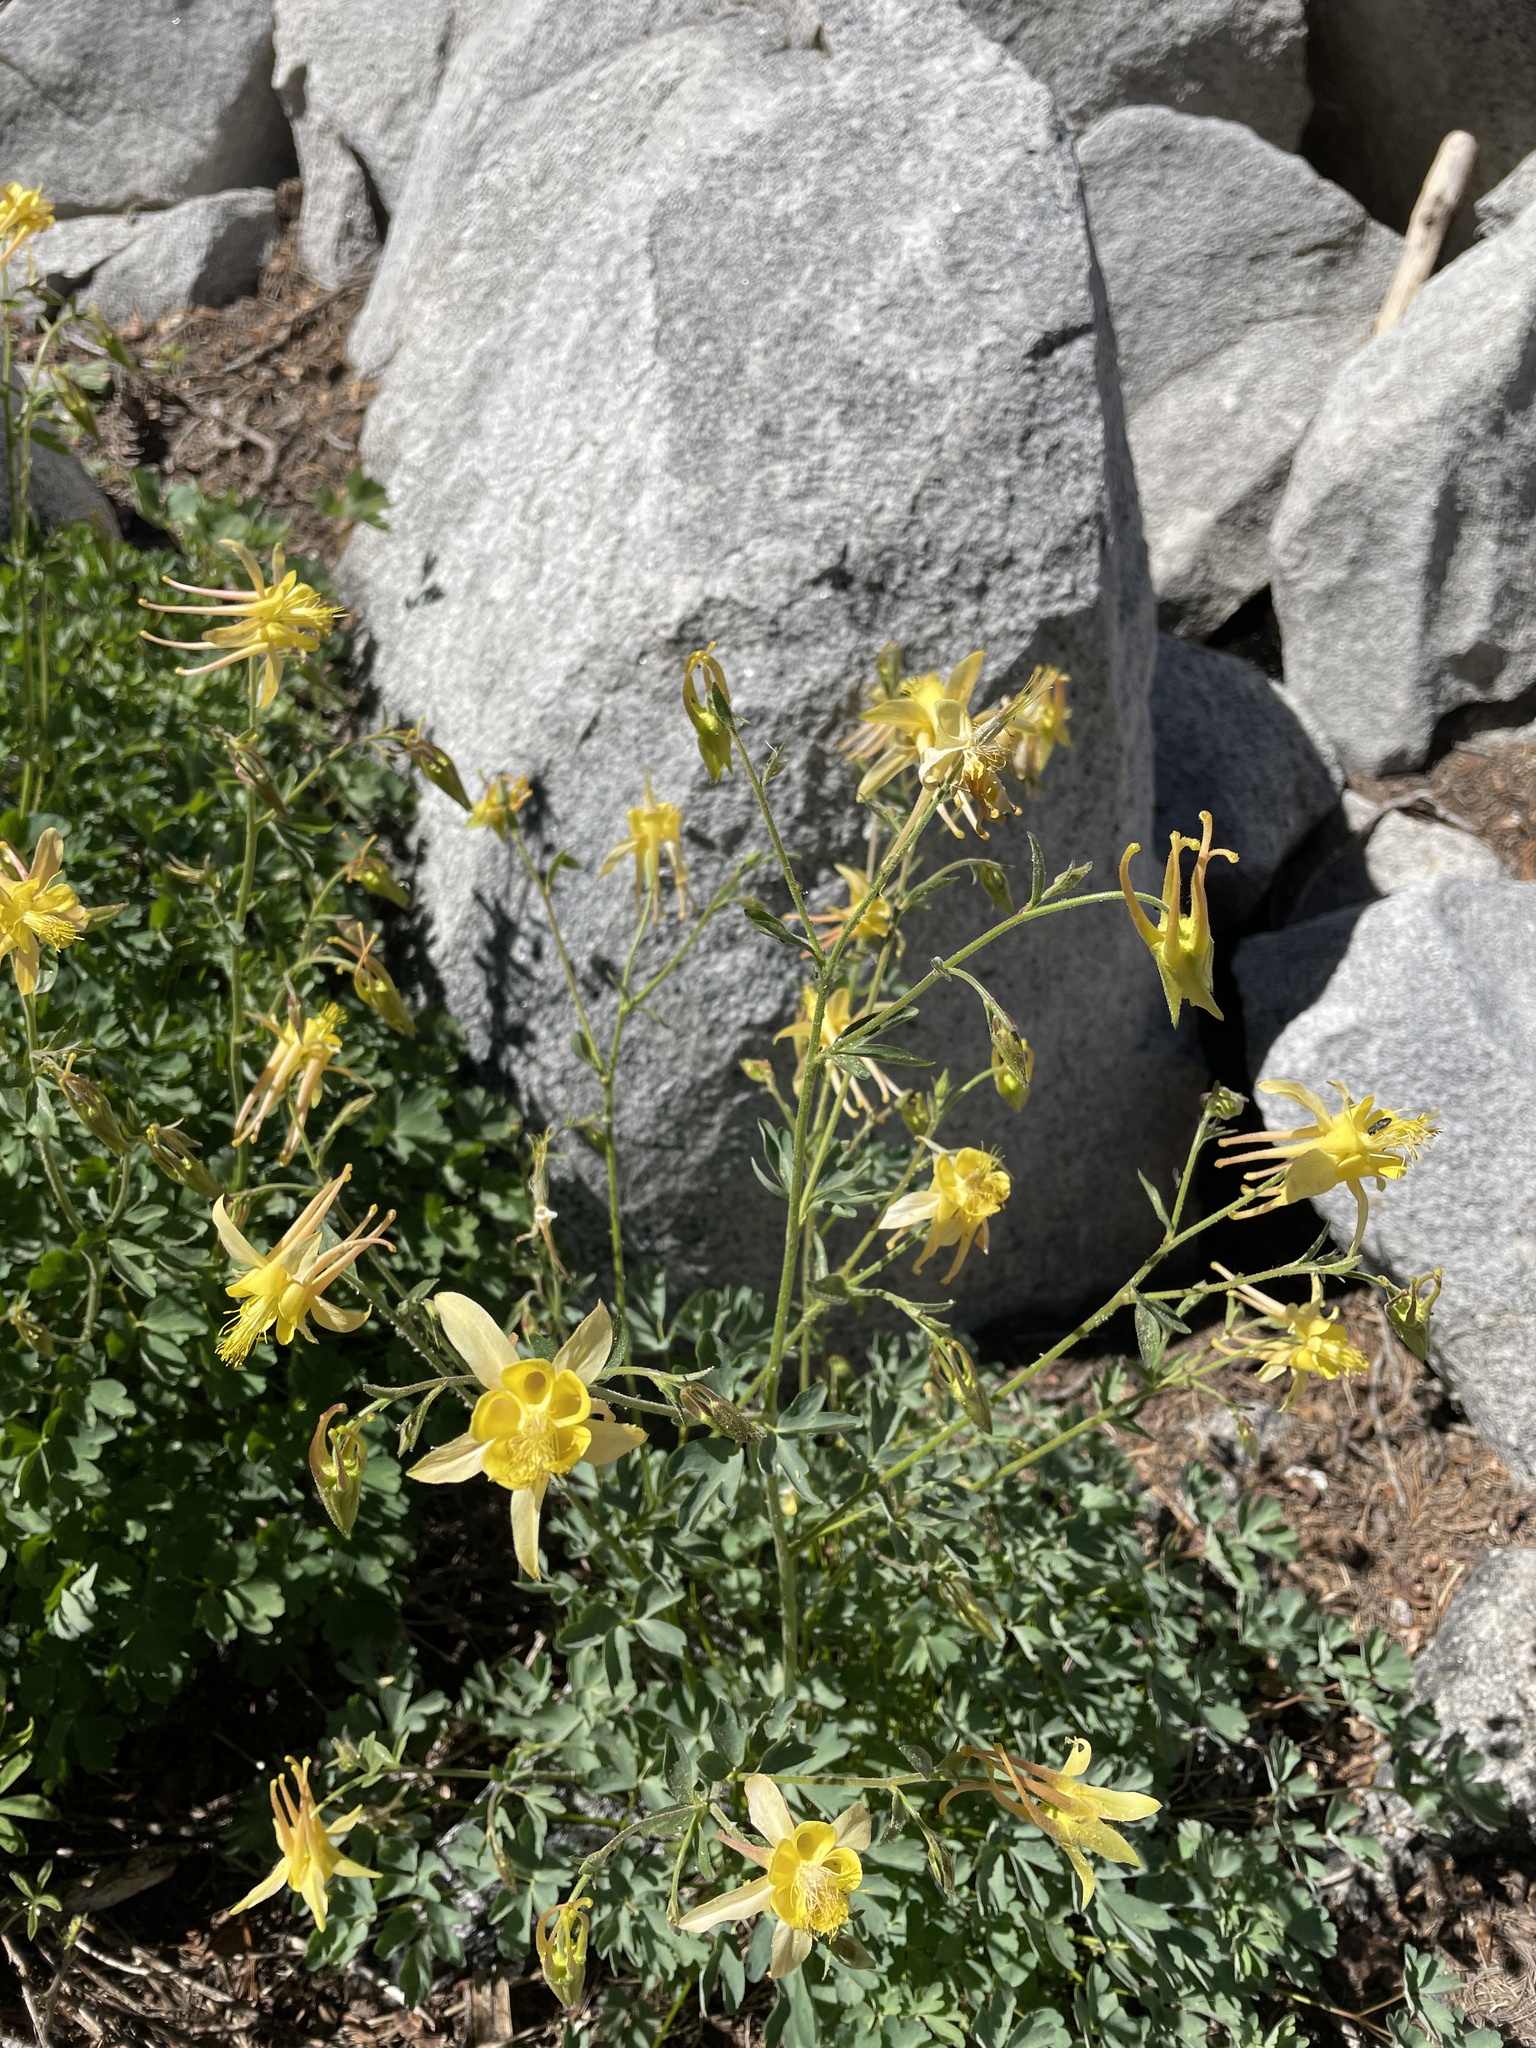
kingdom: Plantae
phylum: Tracheophyta
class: Magnoliopsida
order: Ranunculales
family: Ranunculaceae
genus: Aquilegia
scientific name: Aquilegia pubescens
